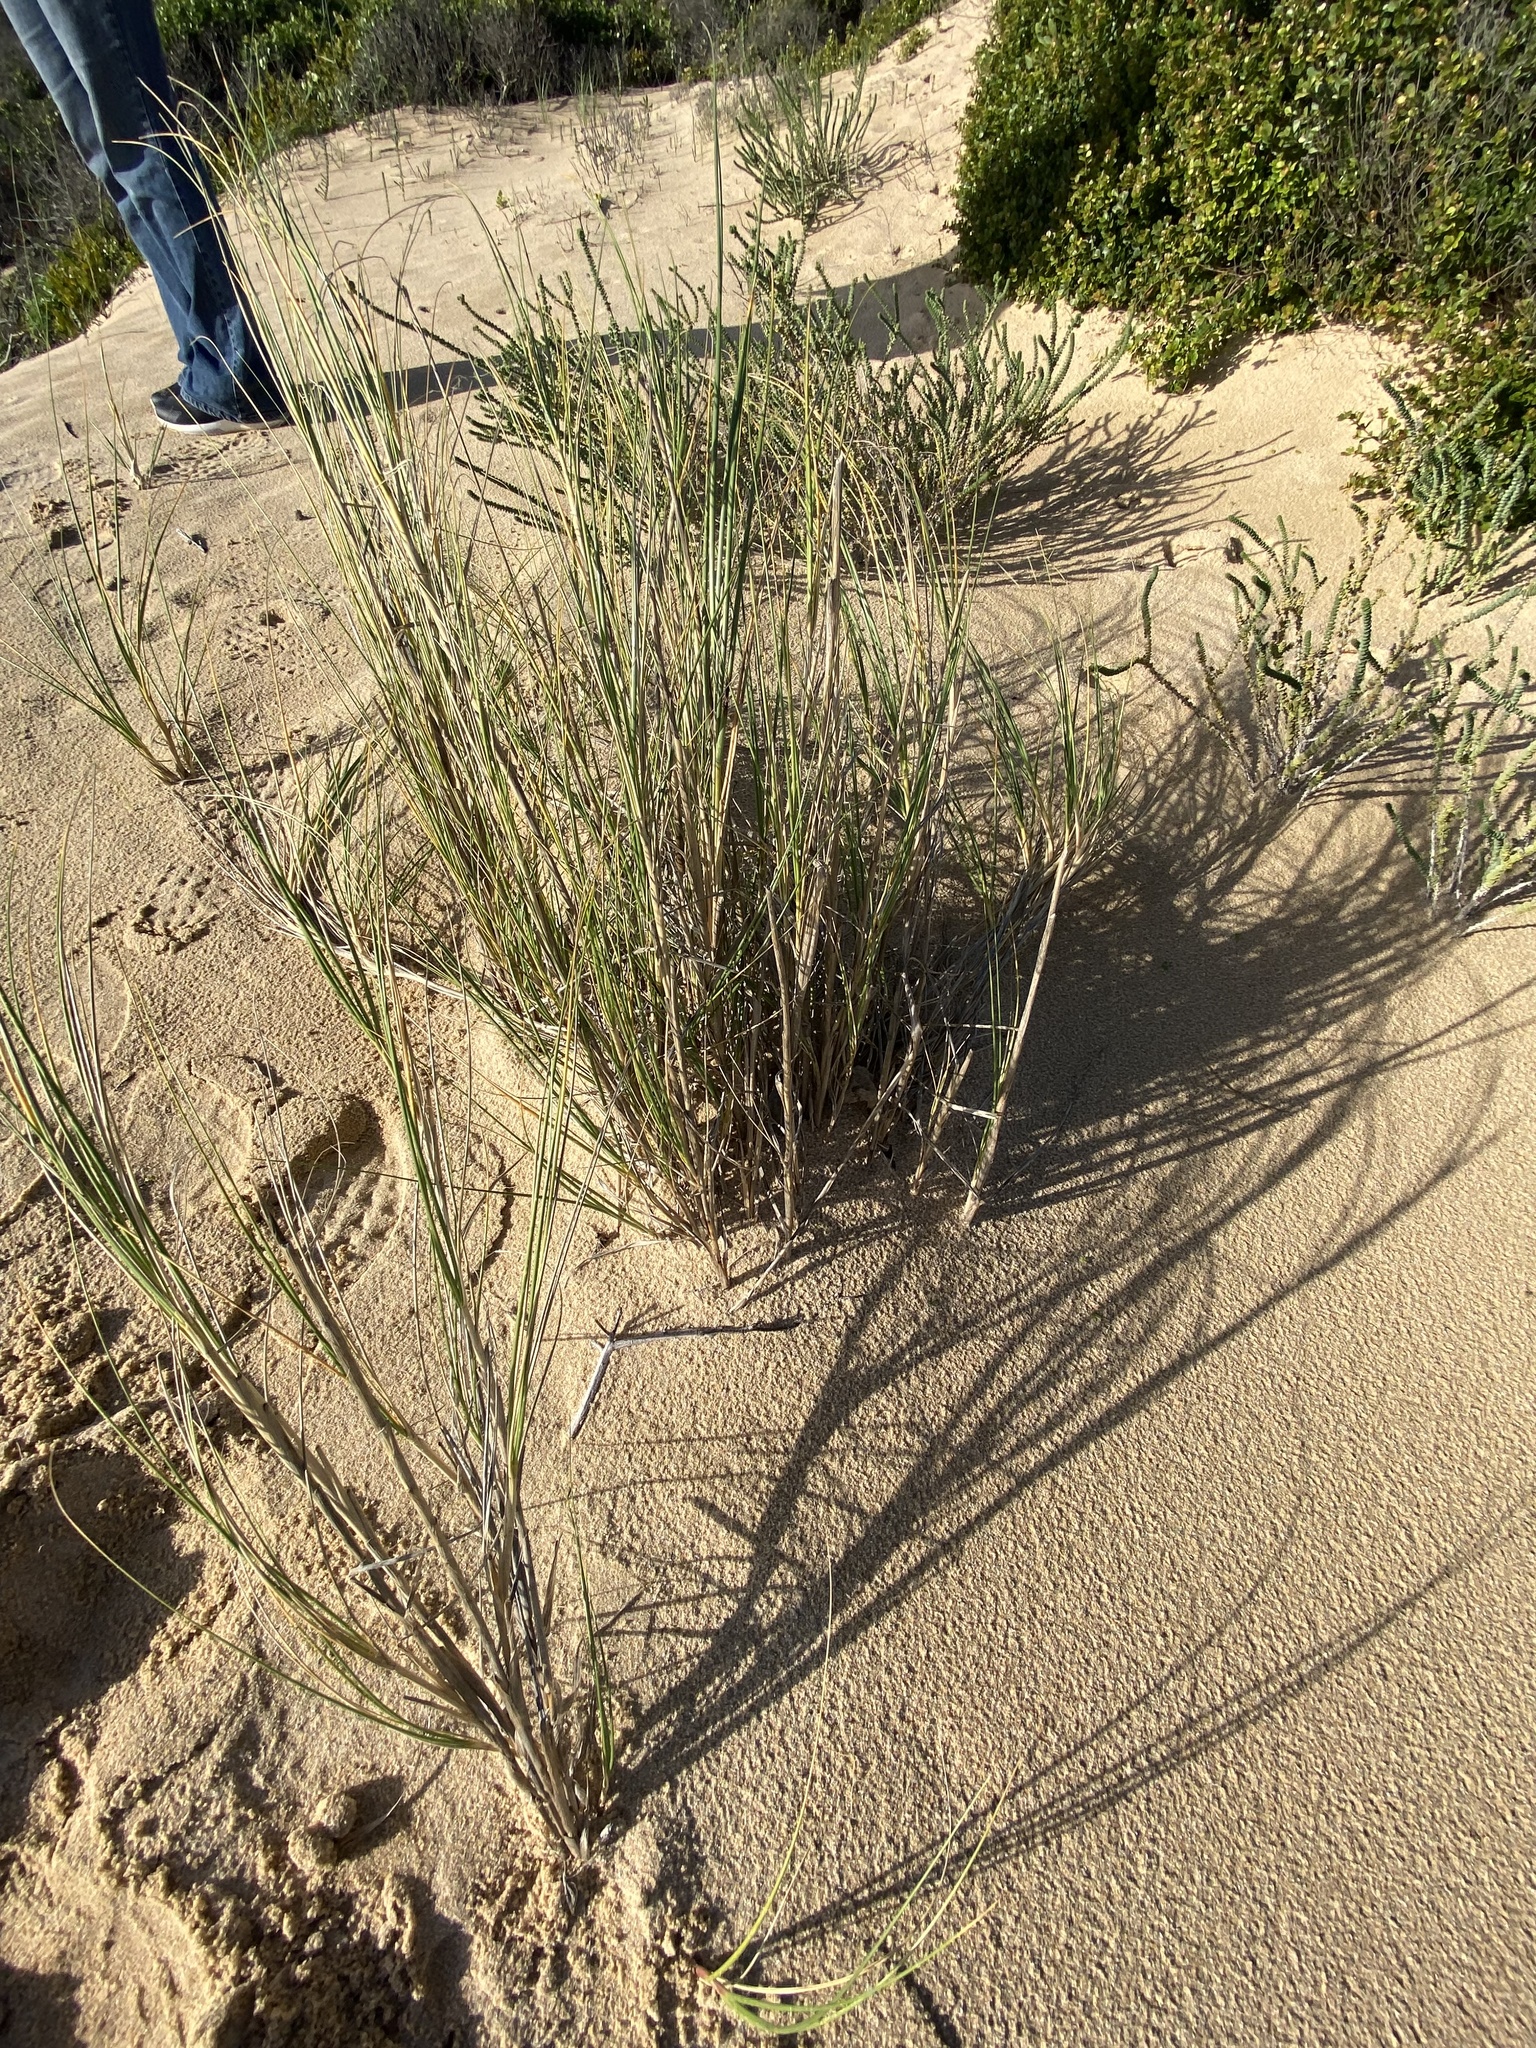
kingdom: Plantae
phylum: Tracheophyta
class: Liliopsida
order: Poales
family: Poaceae
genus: Thinopyrum
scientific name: Thinopyrum distichum
